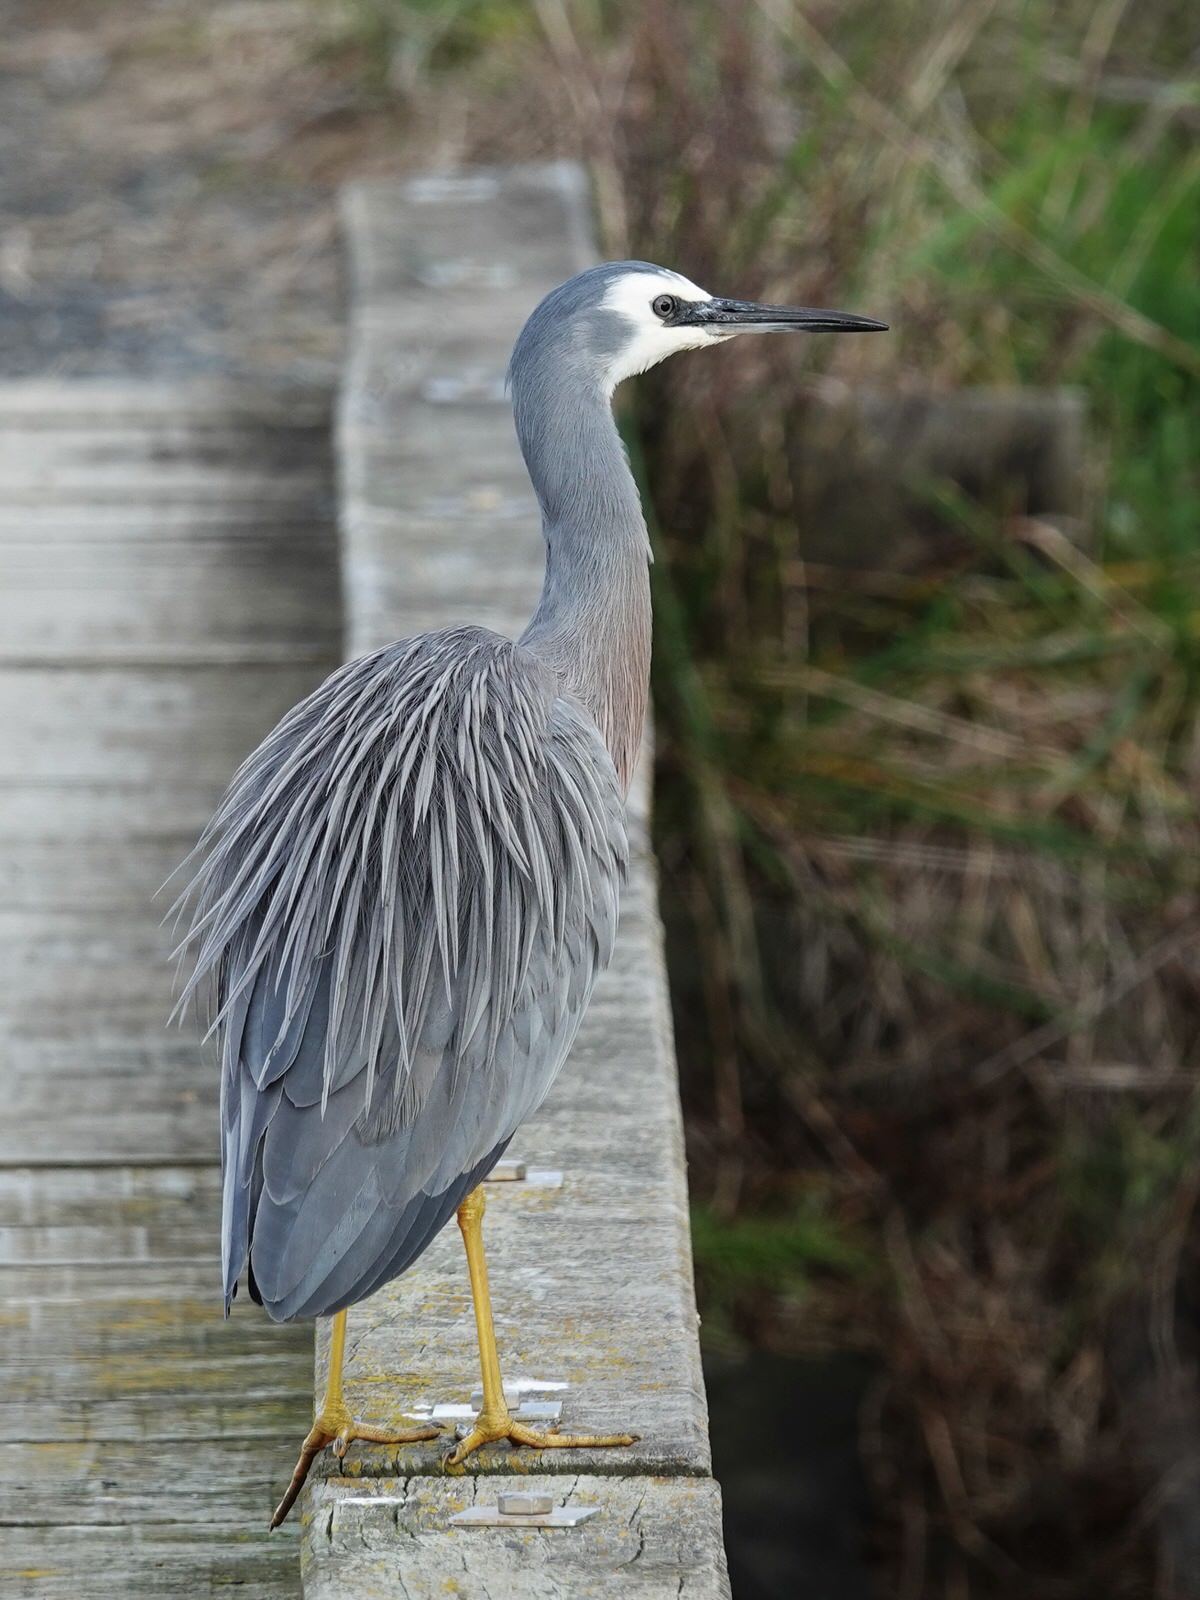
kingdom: Animalia
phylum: Chordata
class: Aves
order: Pelecaniformes
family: Ardeidae
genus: Egretta
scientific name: Egretta novaehollandiae
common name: White-faced heron
